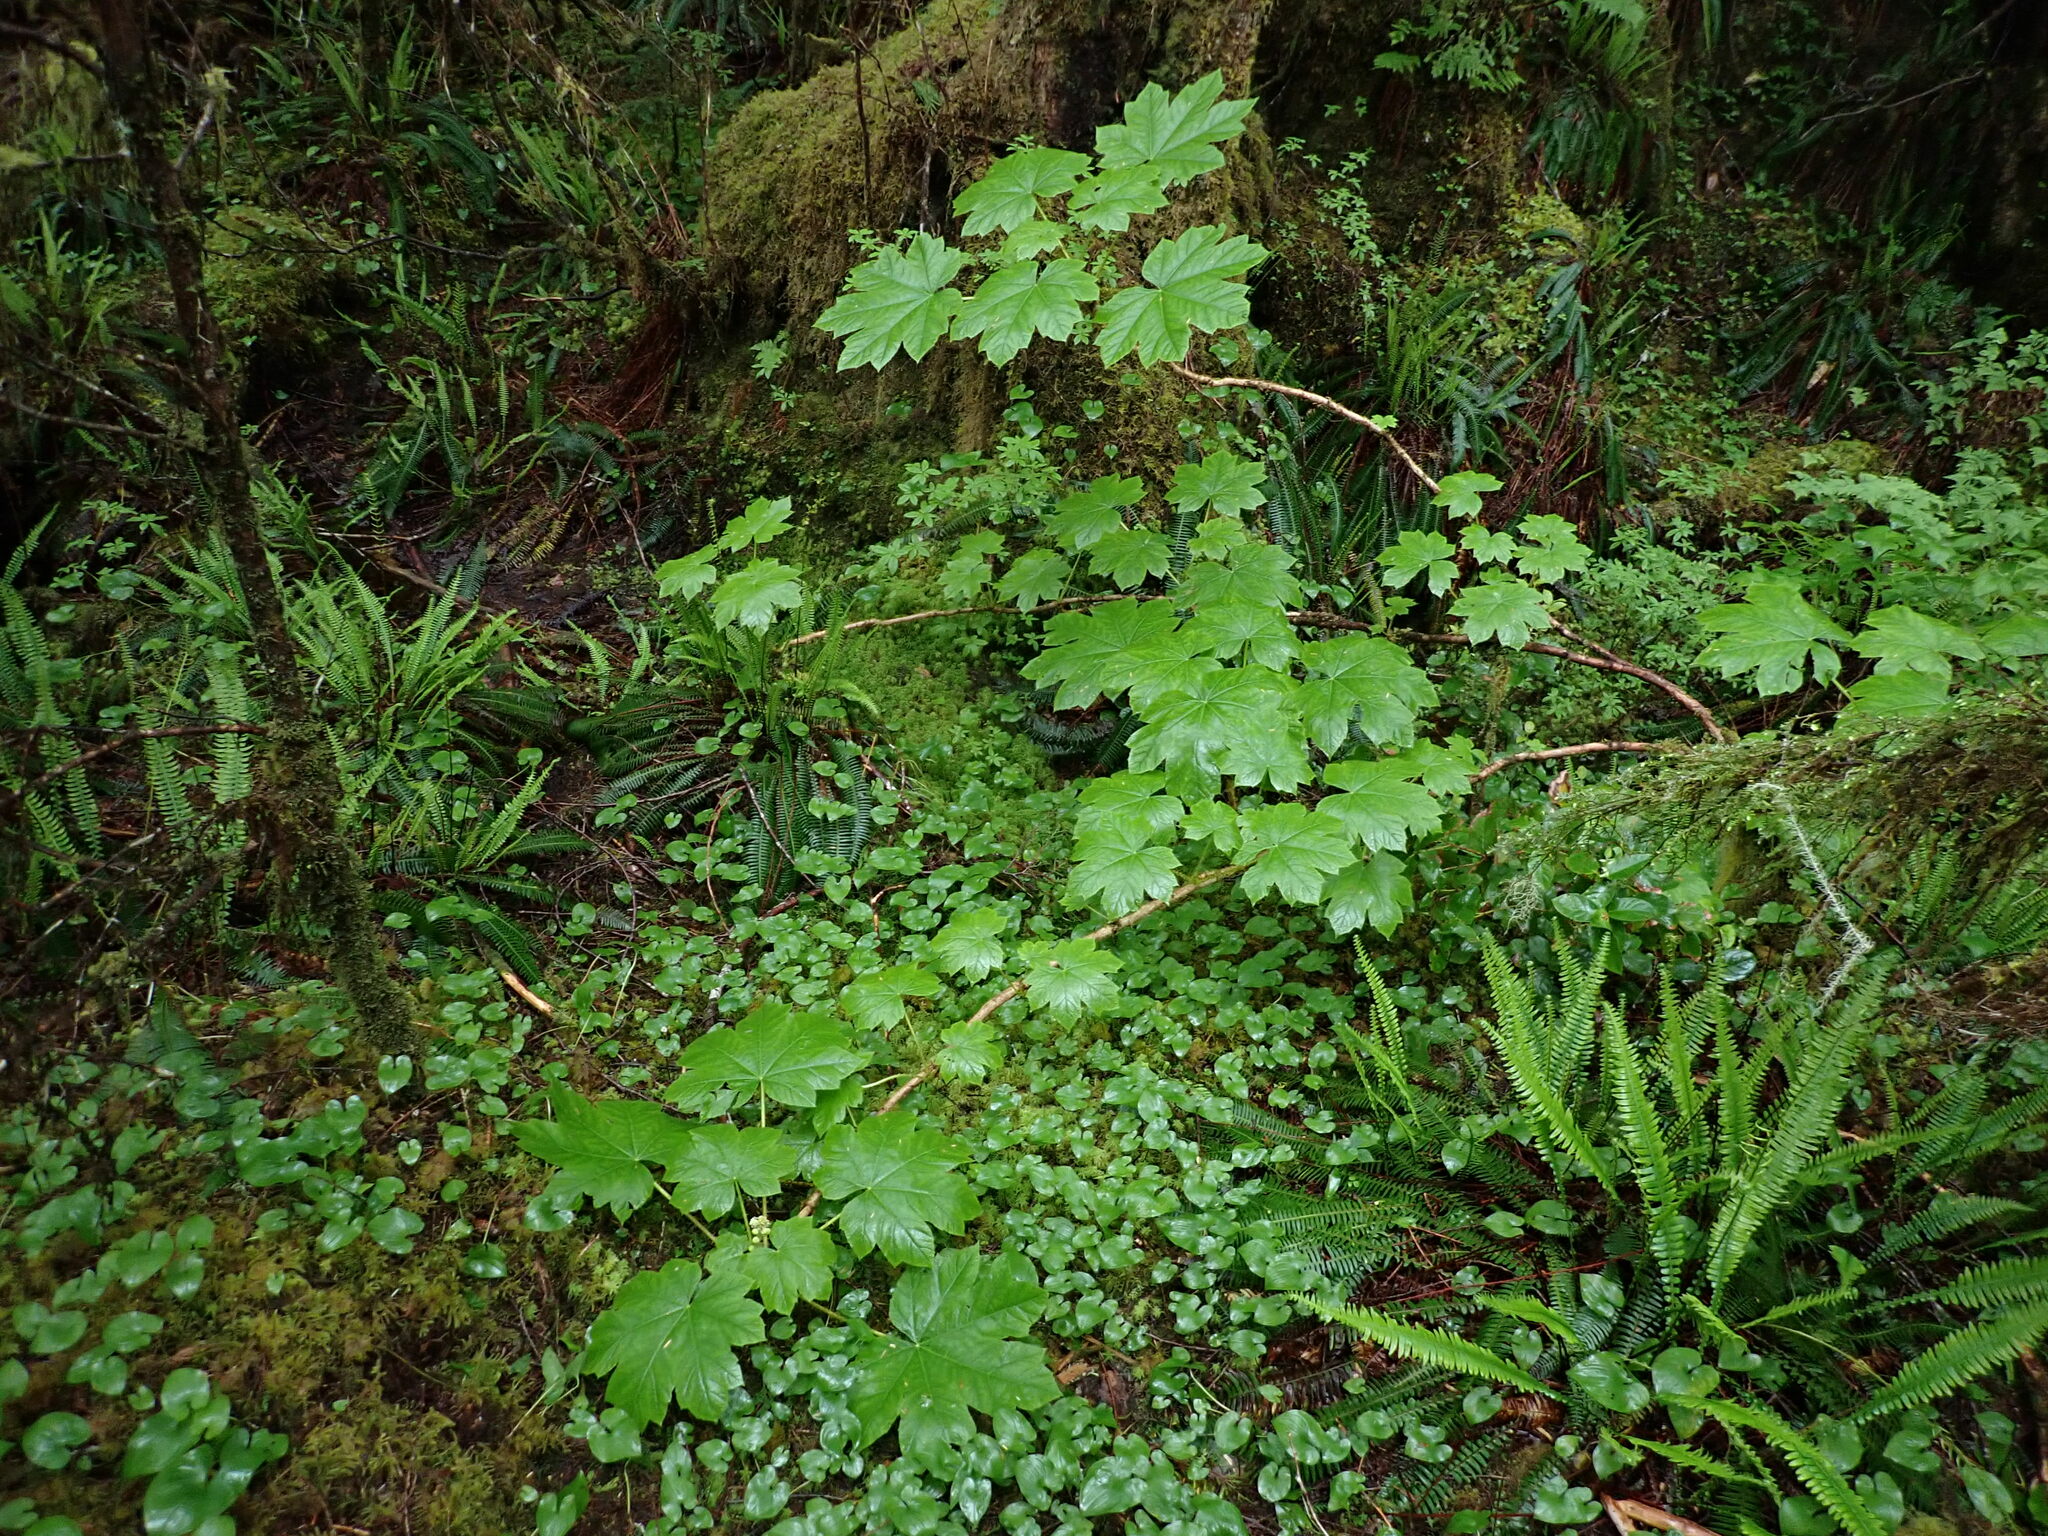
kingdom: Plantae
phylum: Tracheophyta
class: Magnoliopsida
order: Apiales
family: Araliaceae
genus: Oplopanax
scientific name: Oplopanax horridus
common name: Devil's walking-stick
